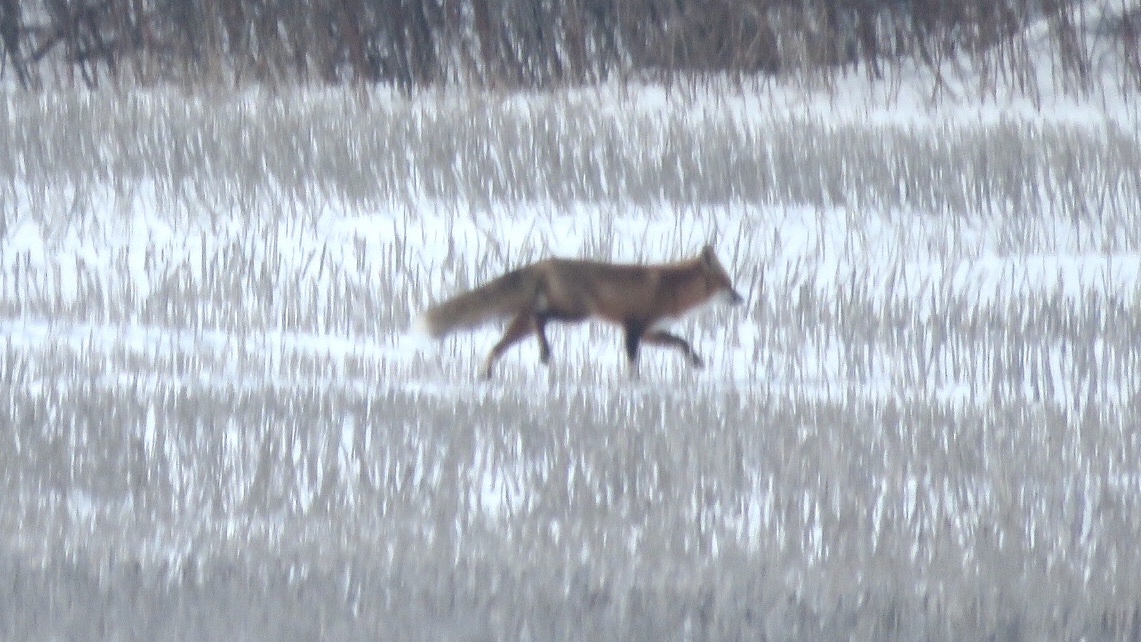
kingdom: Animalia
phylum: Chordata
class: Mammalia
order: Carnivora
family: Canidae
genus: Vulpes
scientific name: Vulpes vulpes
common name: Red fox
